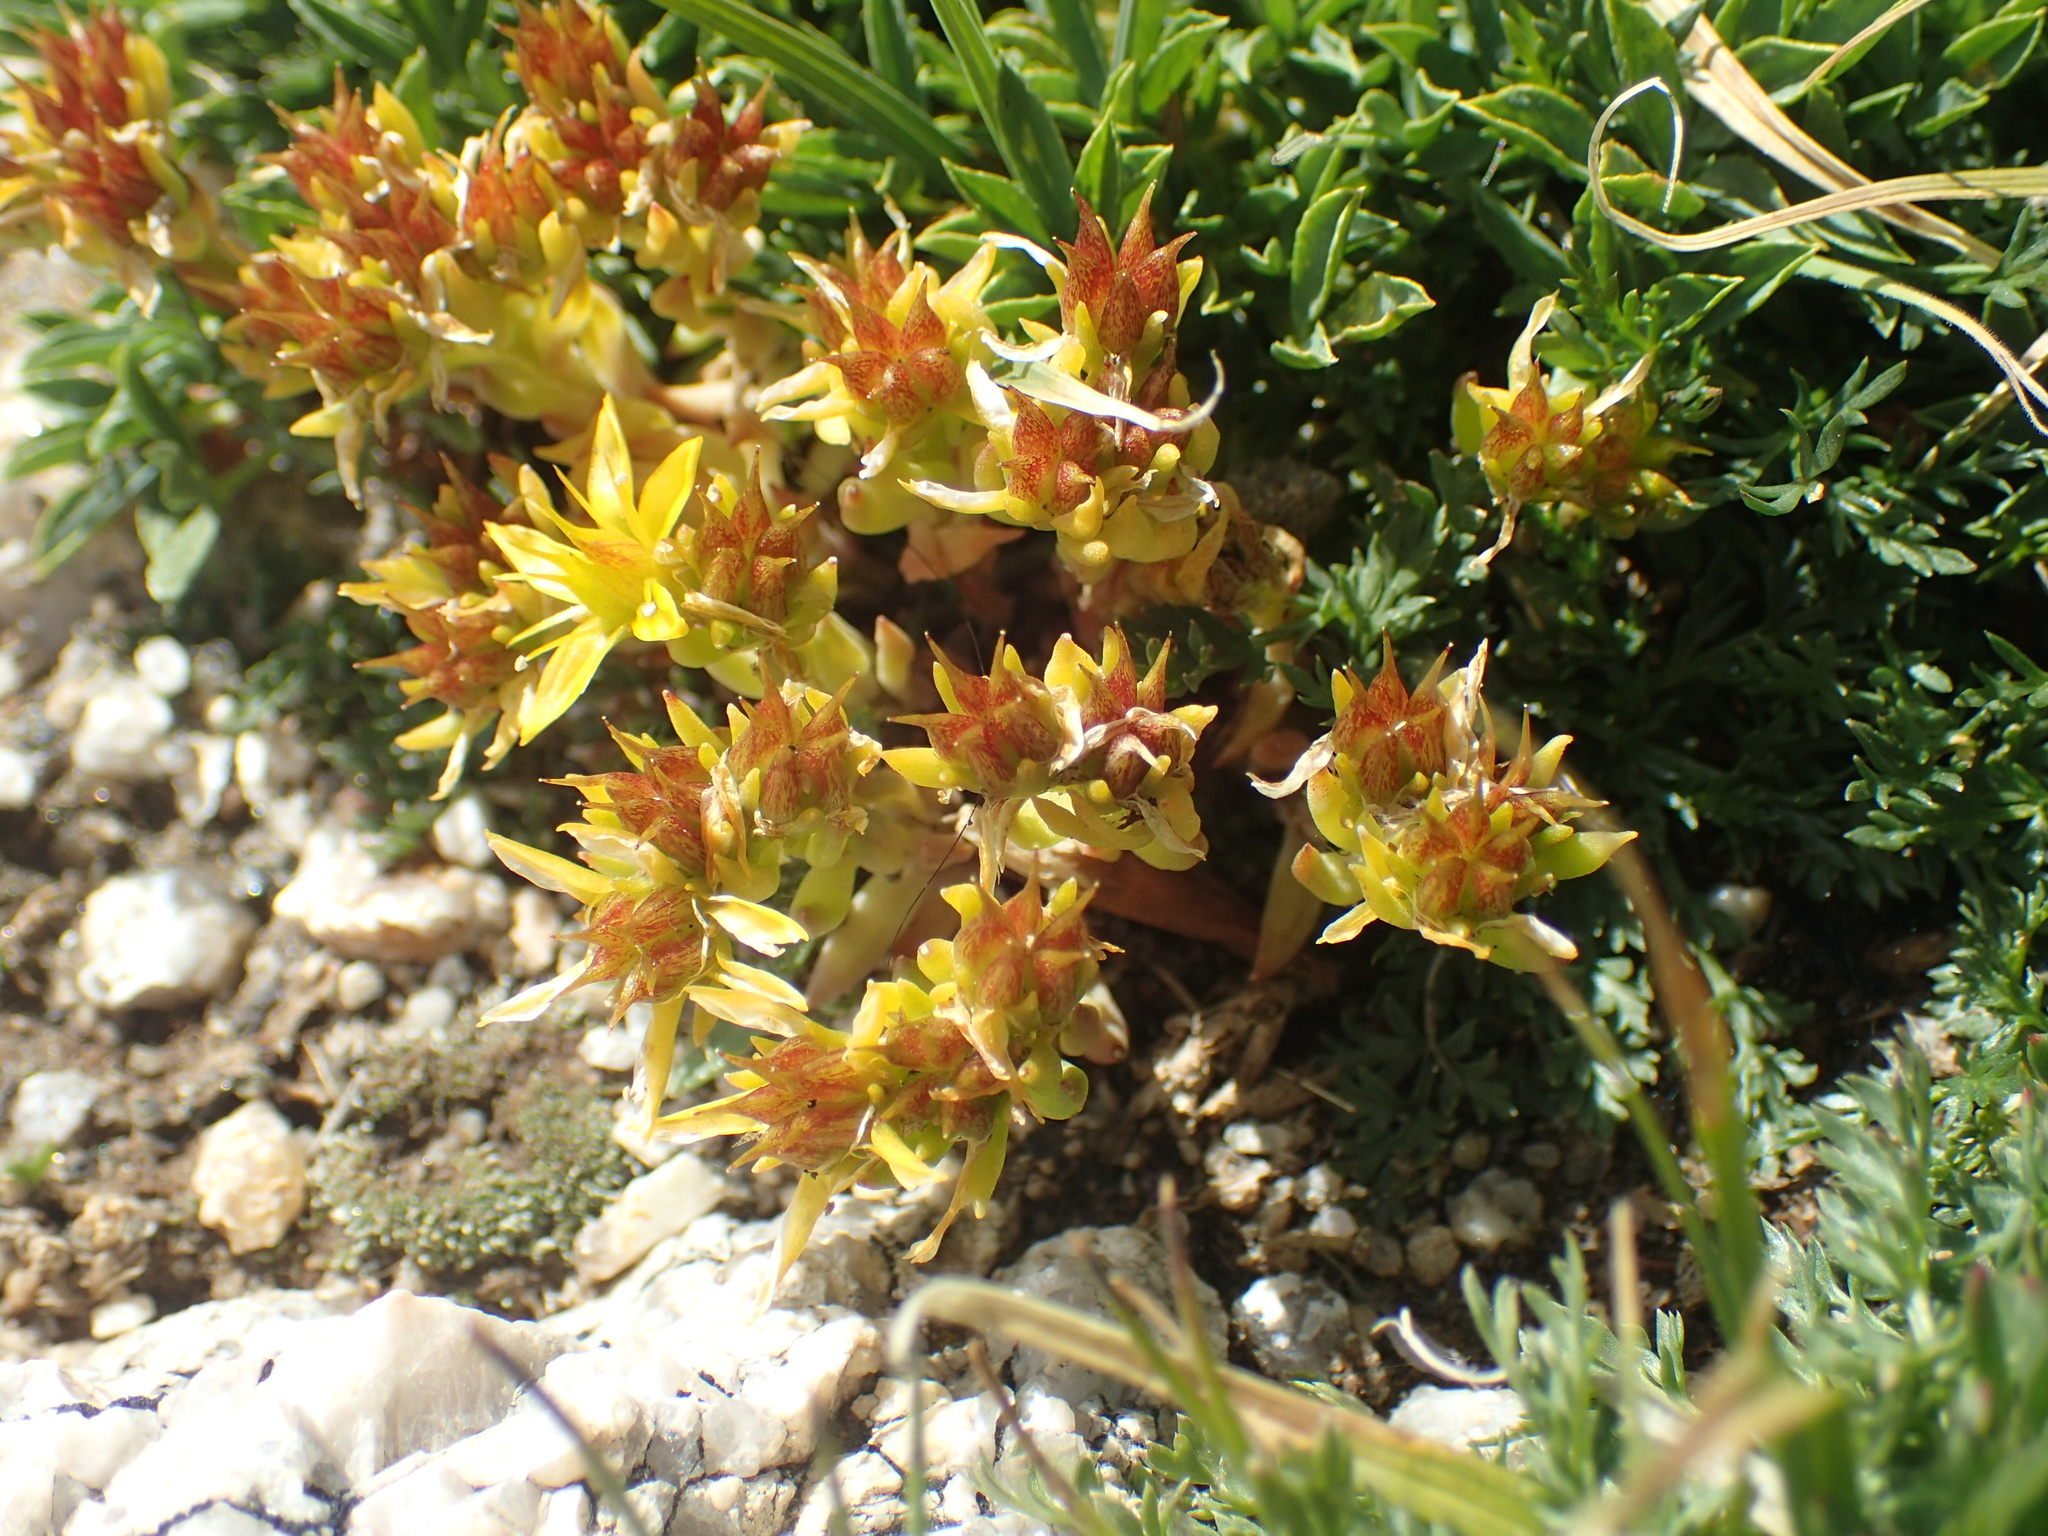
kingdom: Plantae
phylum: Tracheophyta
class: Magnoliopsida
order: Saxifragales
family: Crassulaceae
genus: Sedum
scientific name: Sedum lanceolatum
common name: Common stonecrop
